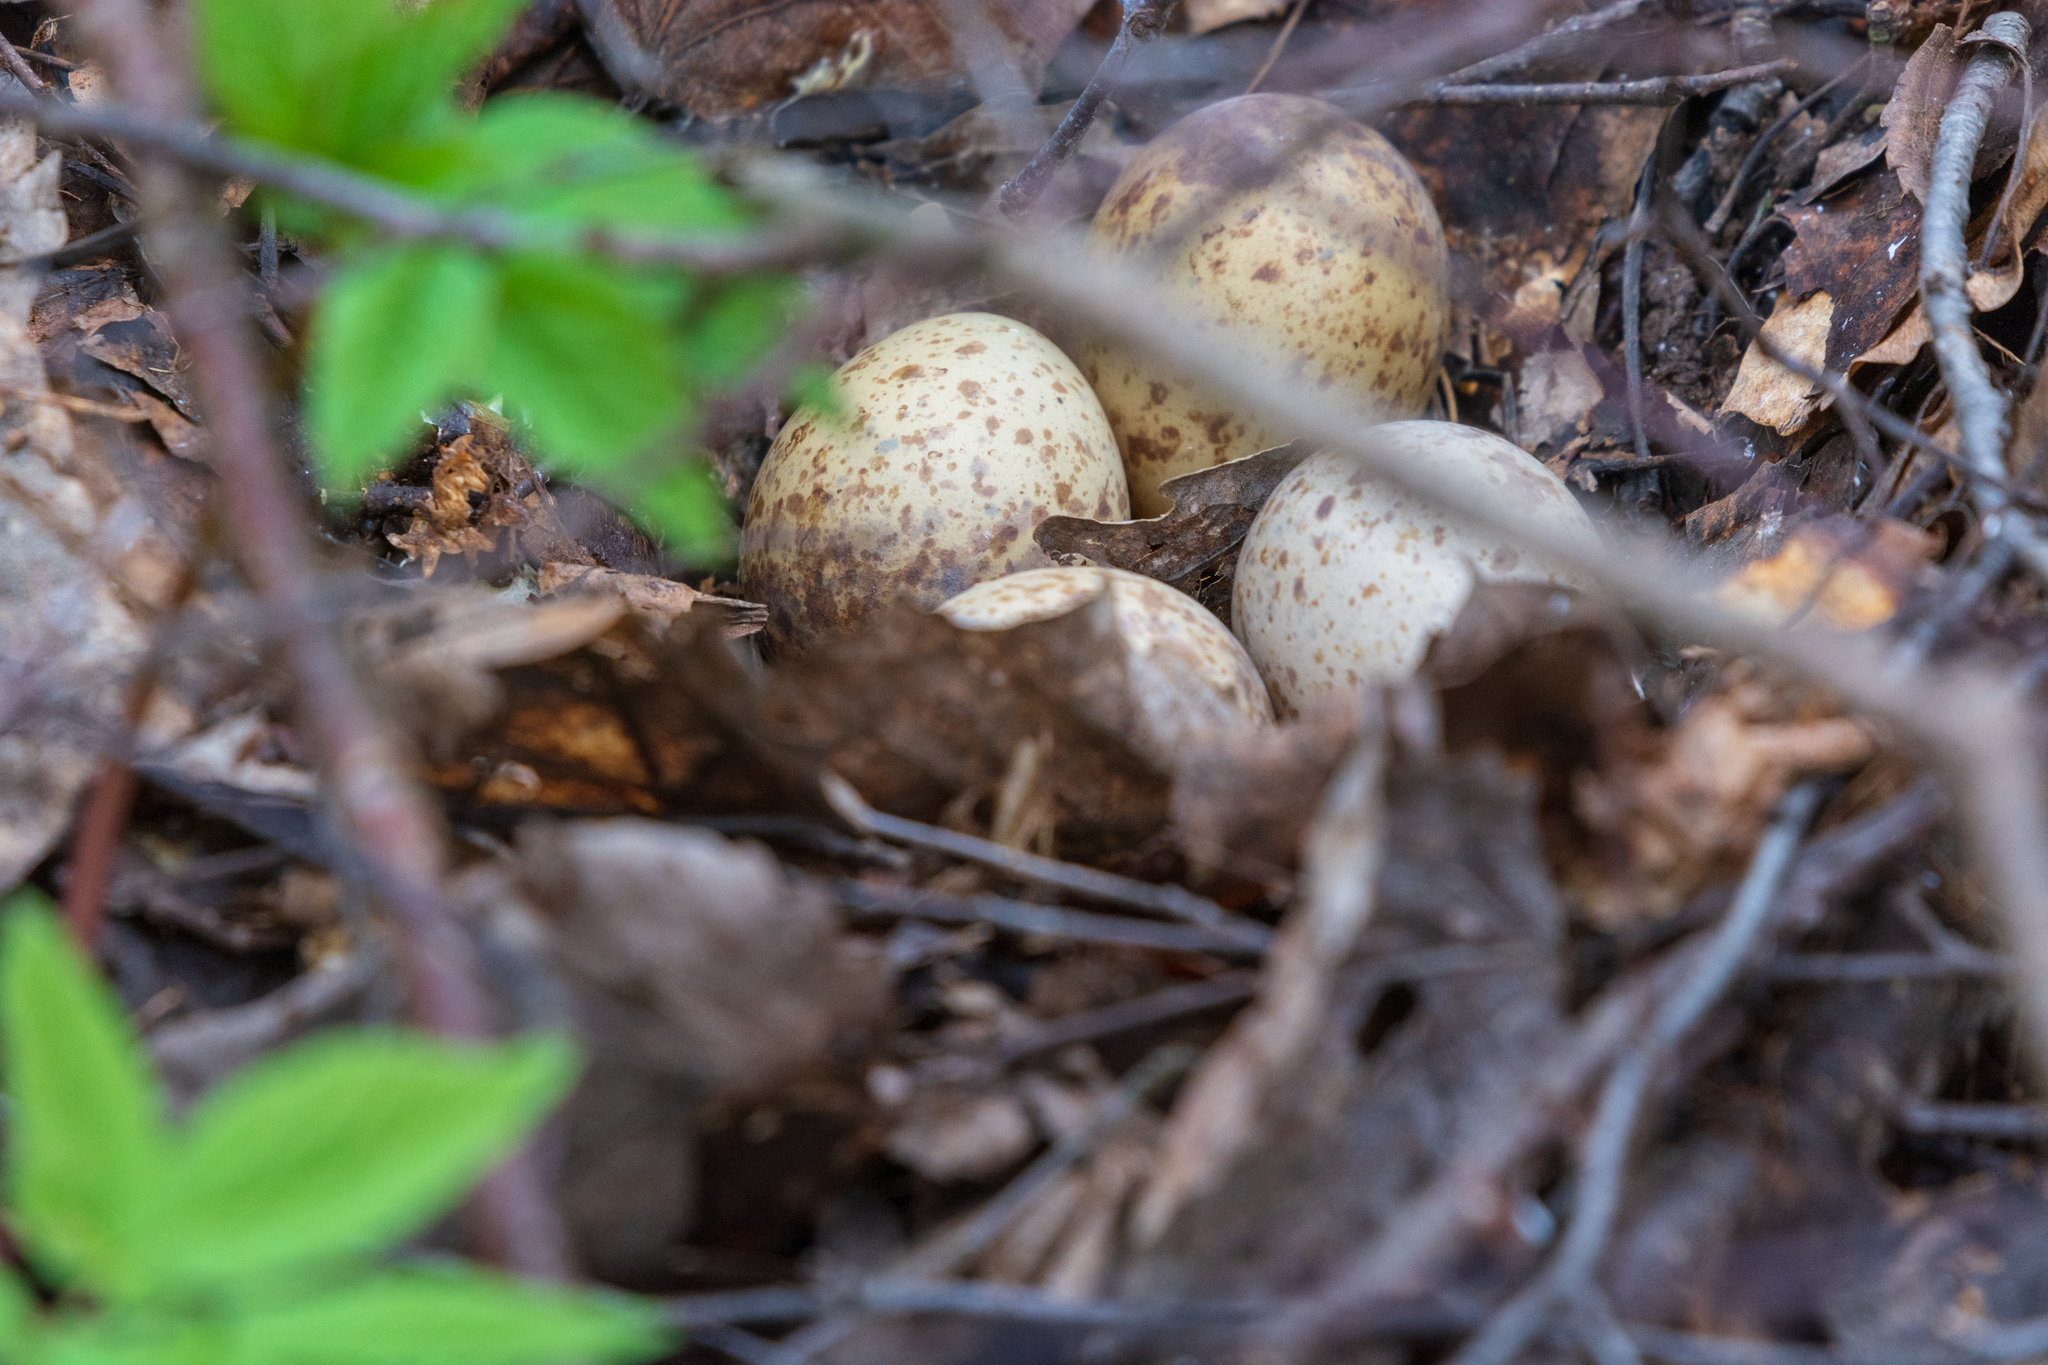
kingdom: Animalia
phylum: Chordata
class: Aves
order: Charadriiformes
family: Scolopacidae
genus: Scolopax
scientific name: Scolopax rusticola
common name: Eurasian woodcock
